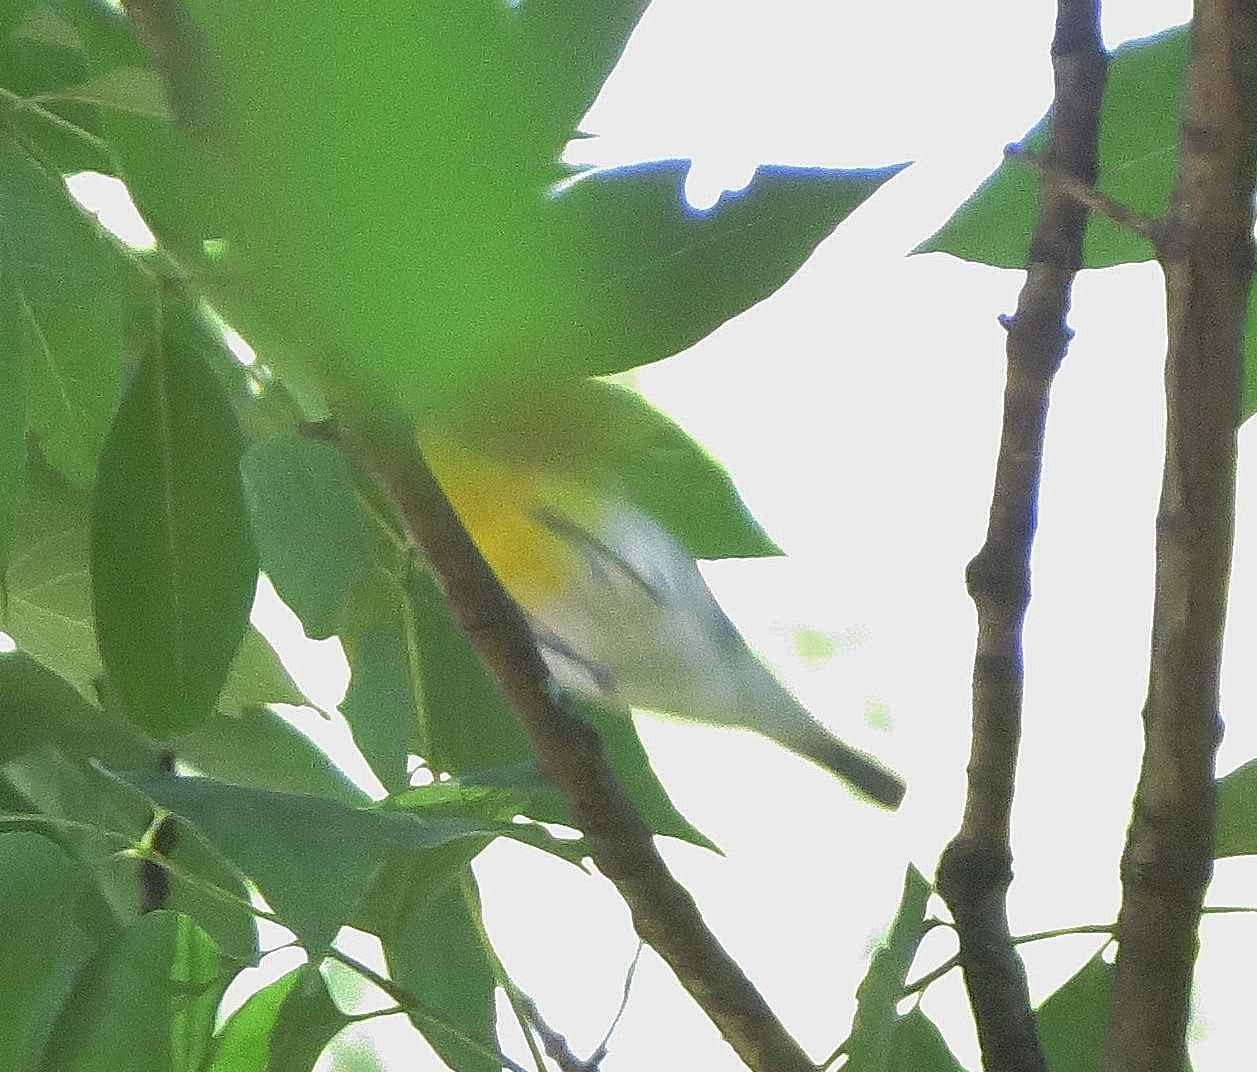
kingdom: Animalia
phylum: Chordata
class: Aves
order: Passeriformes
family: Vireonidae
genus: Vireo
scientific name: Vireo flavifrons
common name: Yellow-throated vireo
